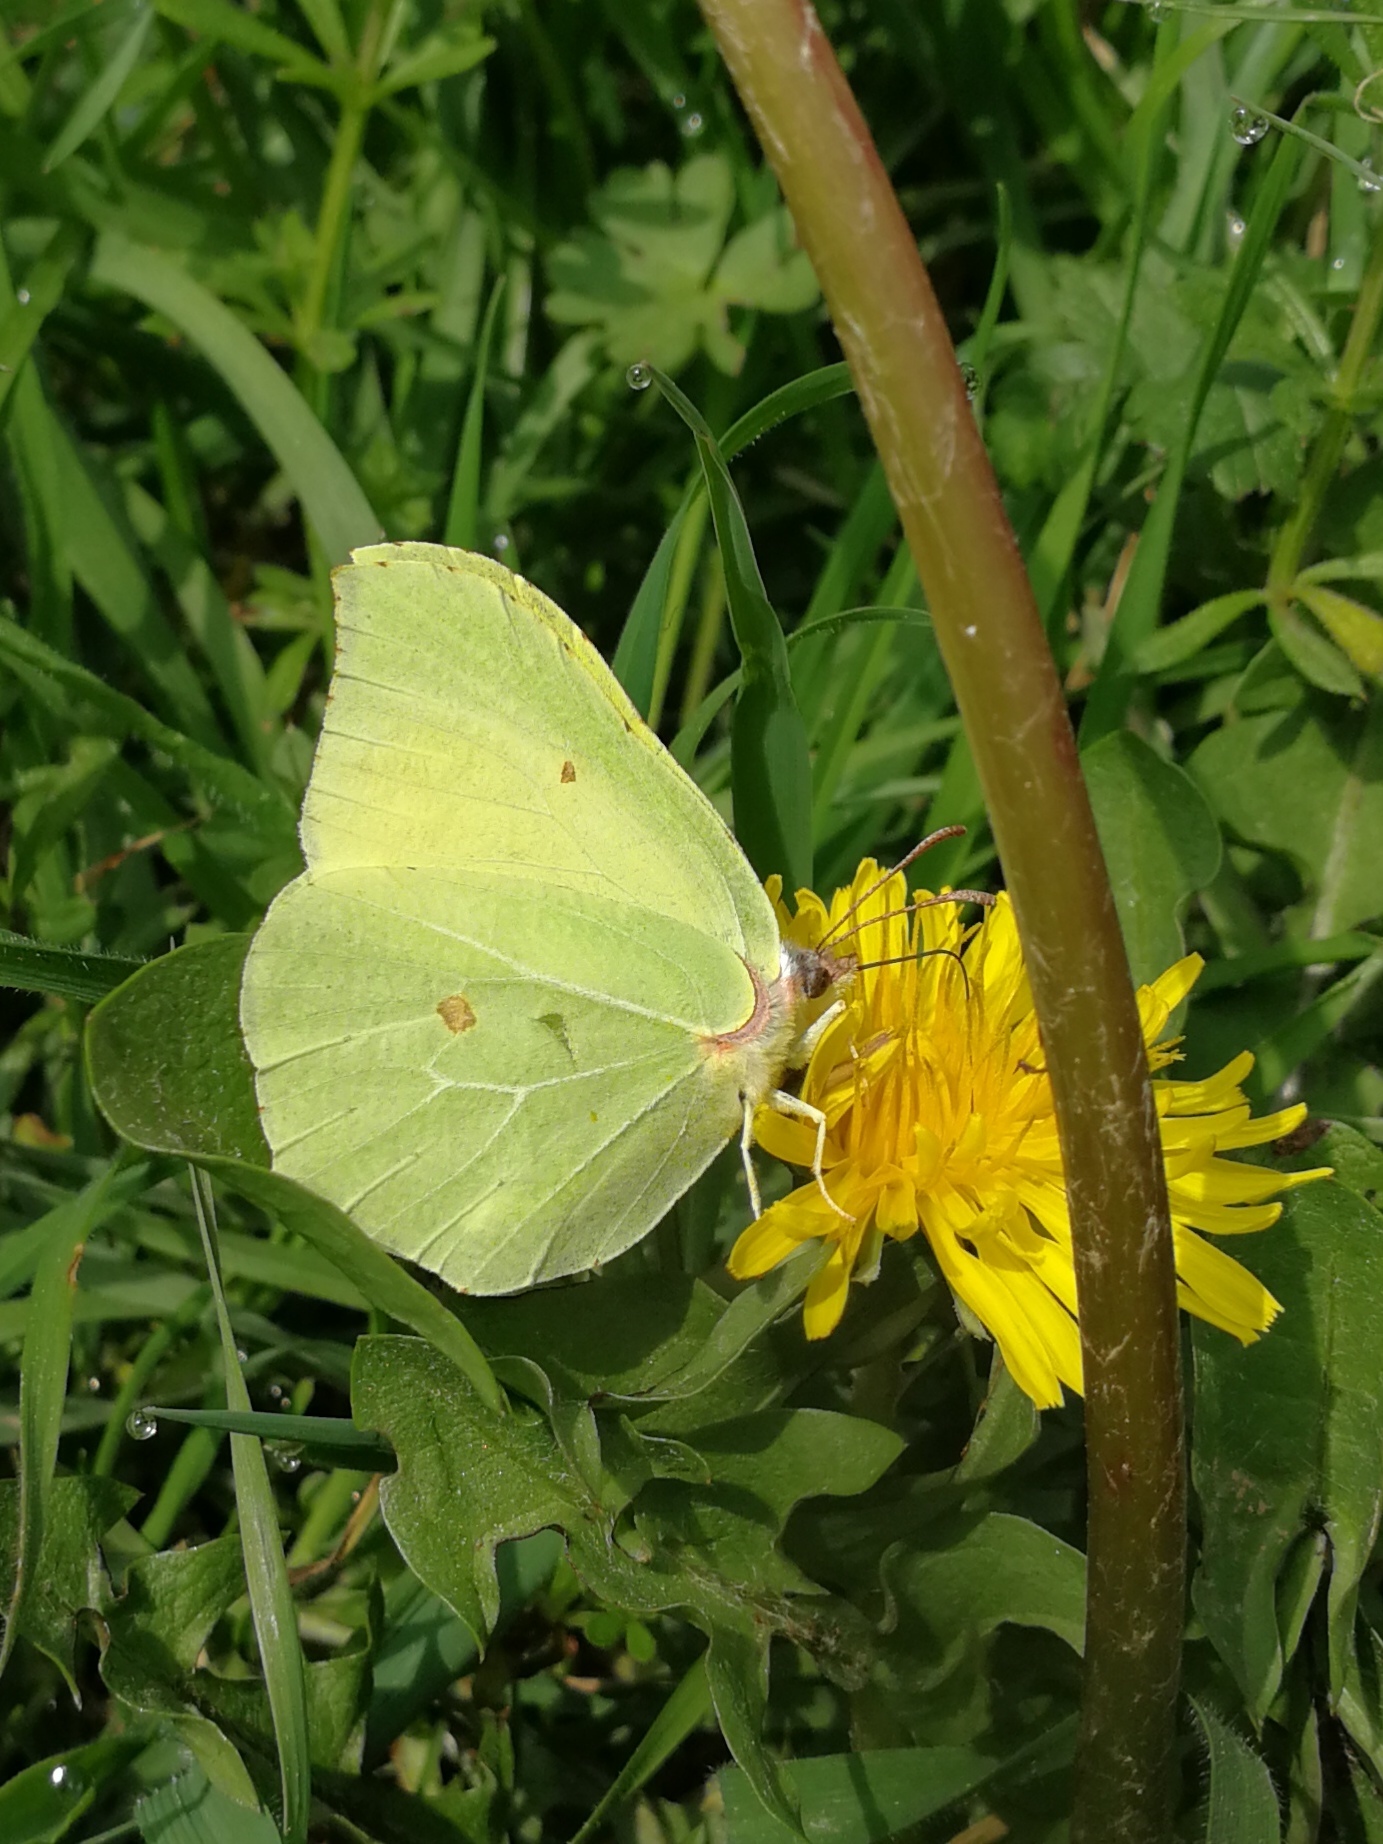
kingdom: Animalia
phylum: Arthropoda
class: Insecta
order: Lepidoptera
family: Pieridae
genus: Gonepteryx
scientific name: Gonepteryx rhamni
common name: Brimstone
